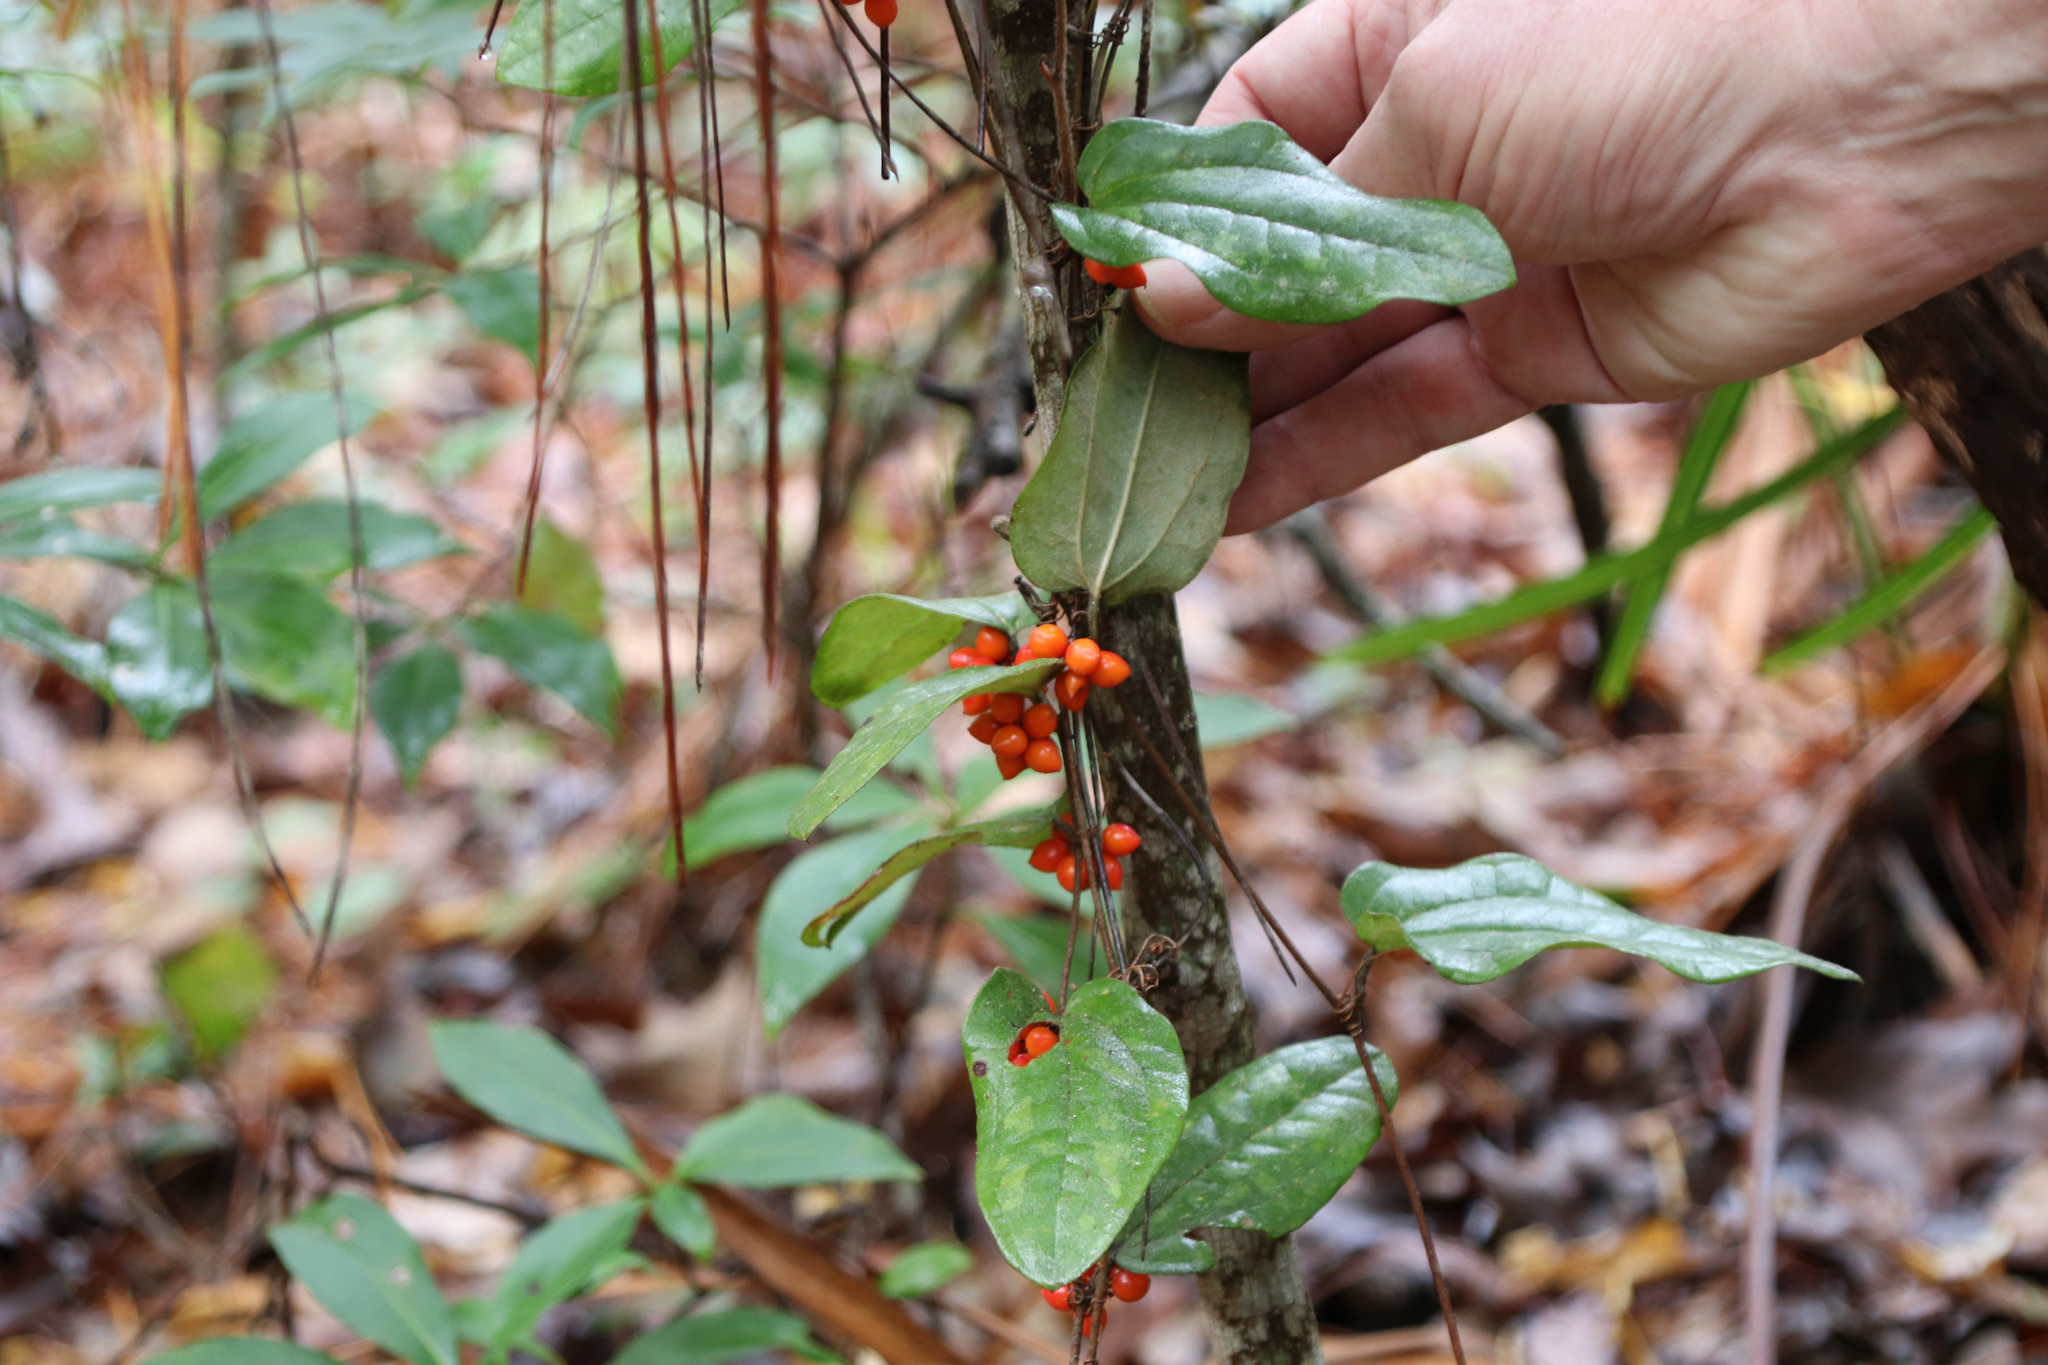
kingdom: Plantae
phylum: Tracheophyta
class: Liliopsida
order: Liliales
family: Smilacaceae
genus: Smilax
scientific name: Smilax pumila
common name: Sarsaparilla-vine
